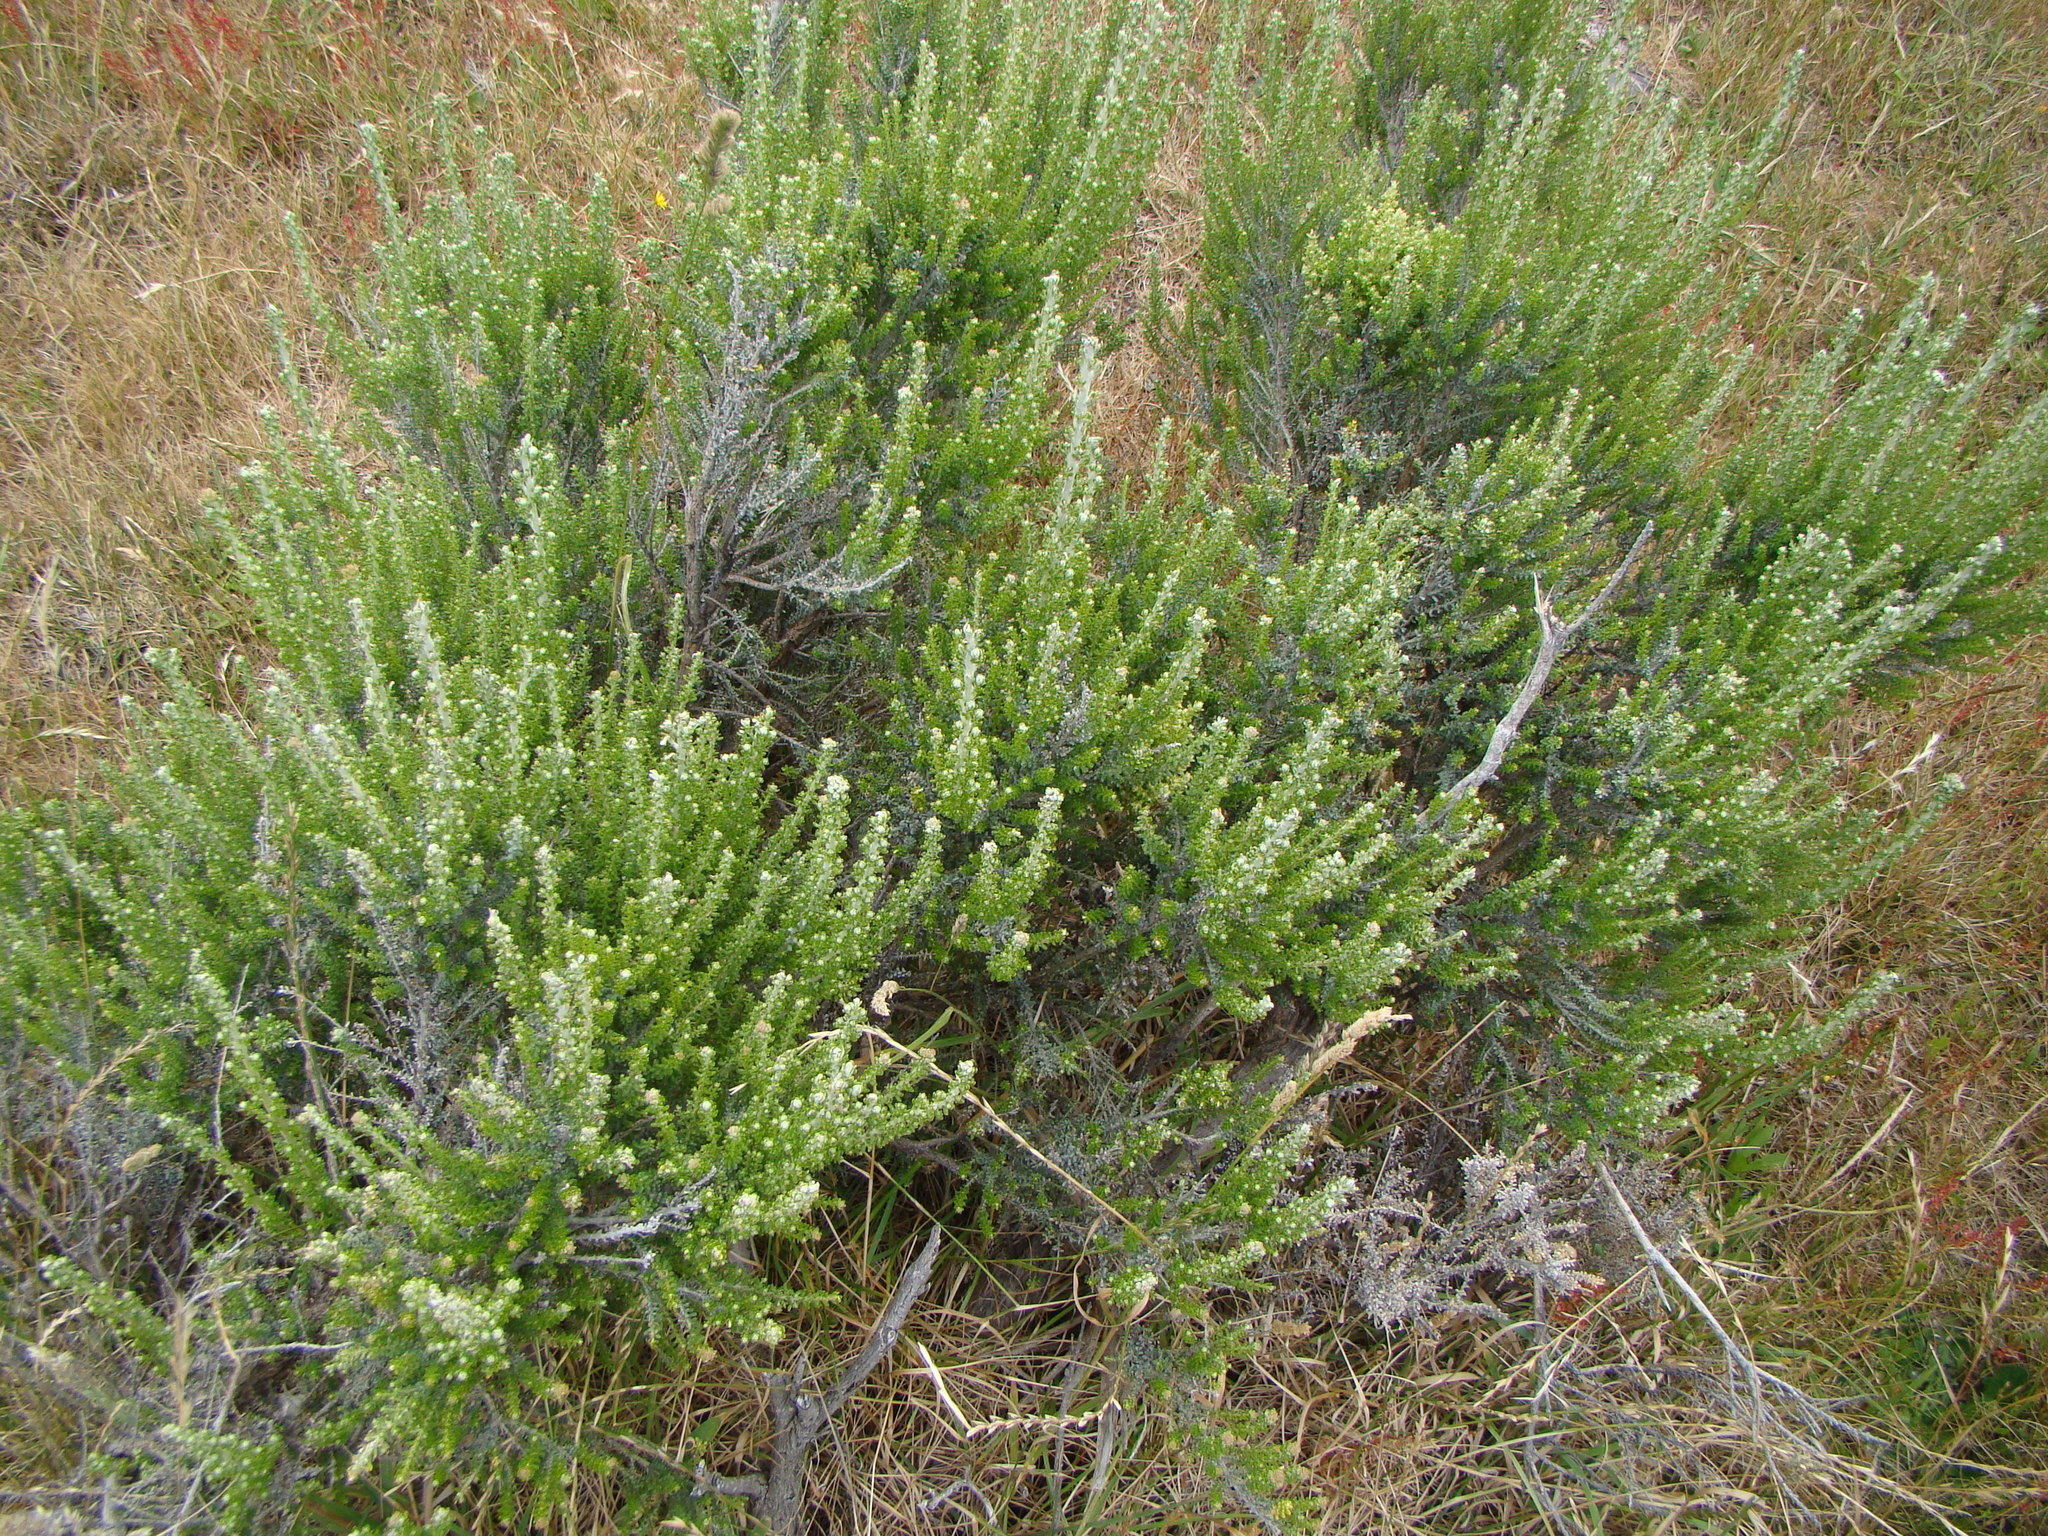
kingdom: Plantae
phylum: Tracheophyta
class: Magnoliopsida
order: Asterales
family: Asteraceae
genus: Ozothamnus
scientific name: Ozothamnus leptophyllus
